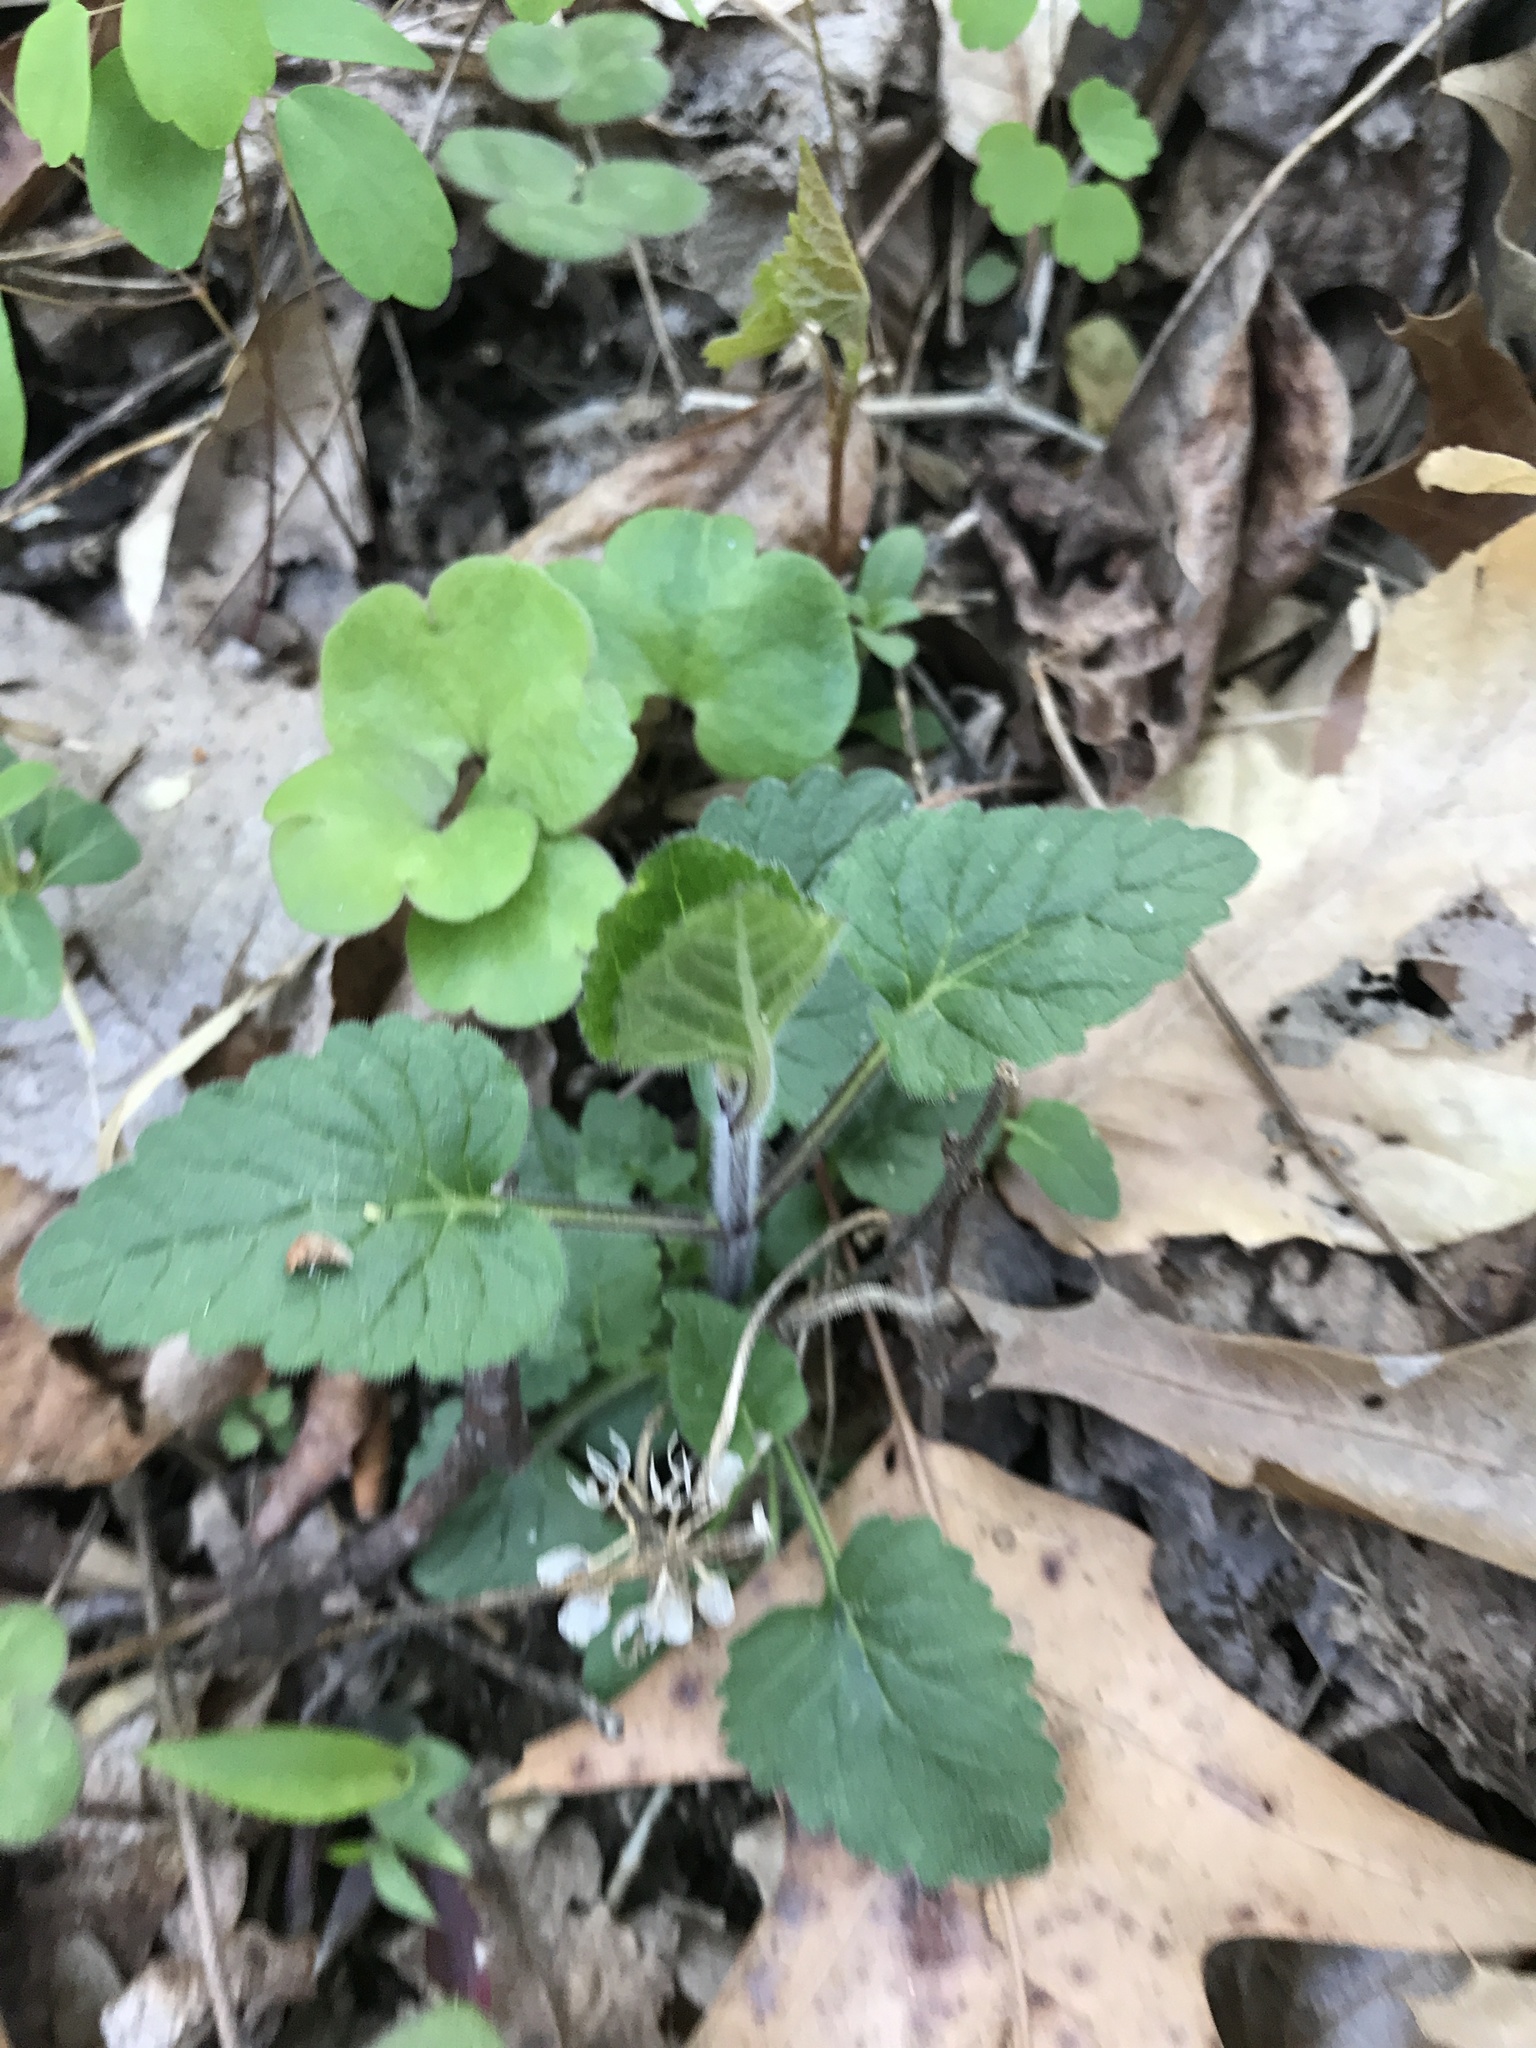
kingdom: Plantae
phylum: Tracheophyta
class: Magnoliopsida
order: Lamiales
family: Lamiaceae
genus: Scutellaria
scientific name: Scutellaria elliptica
